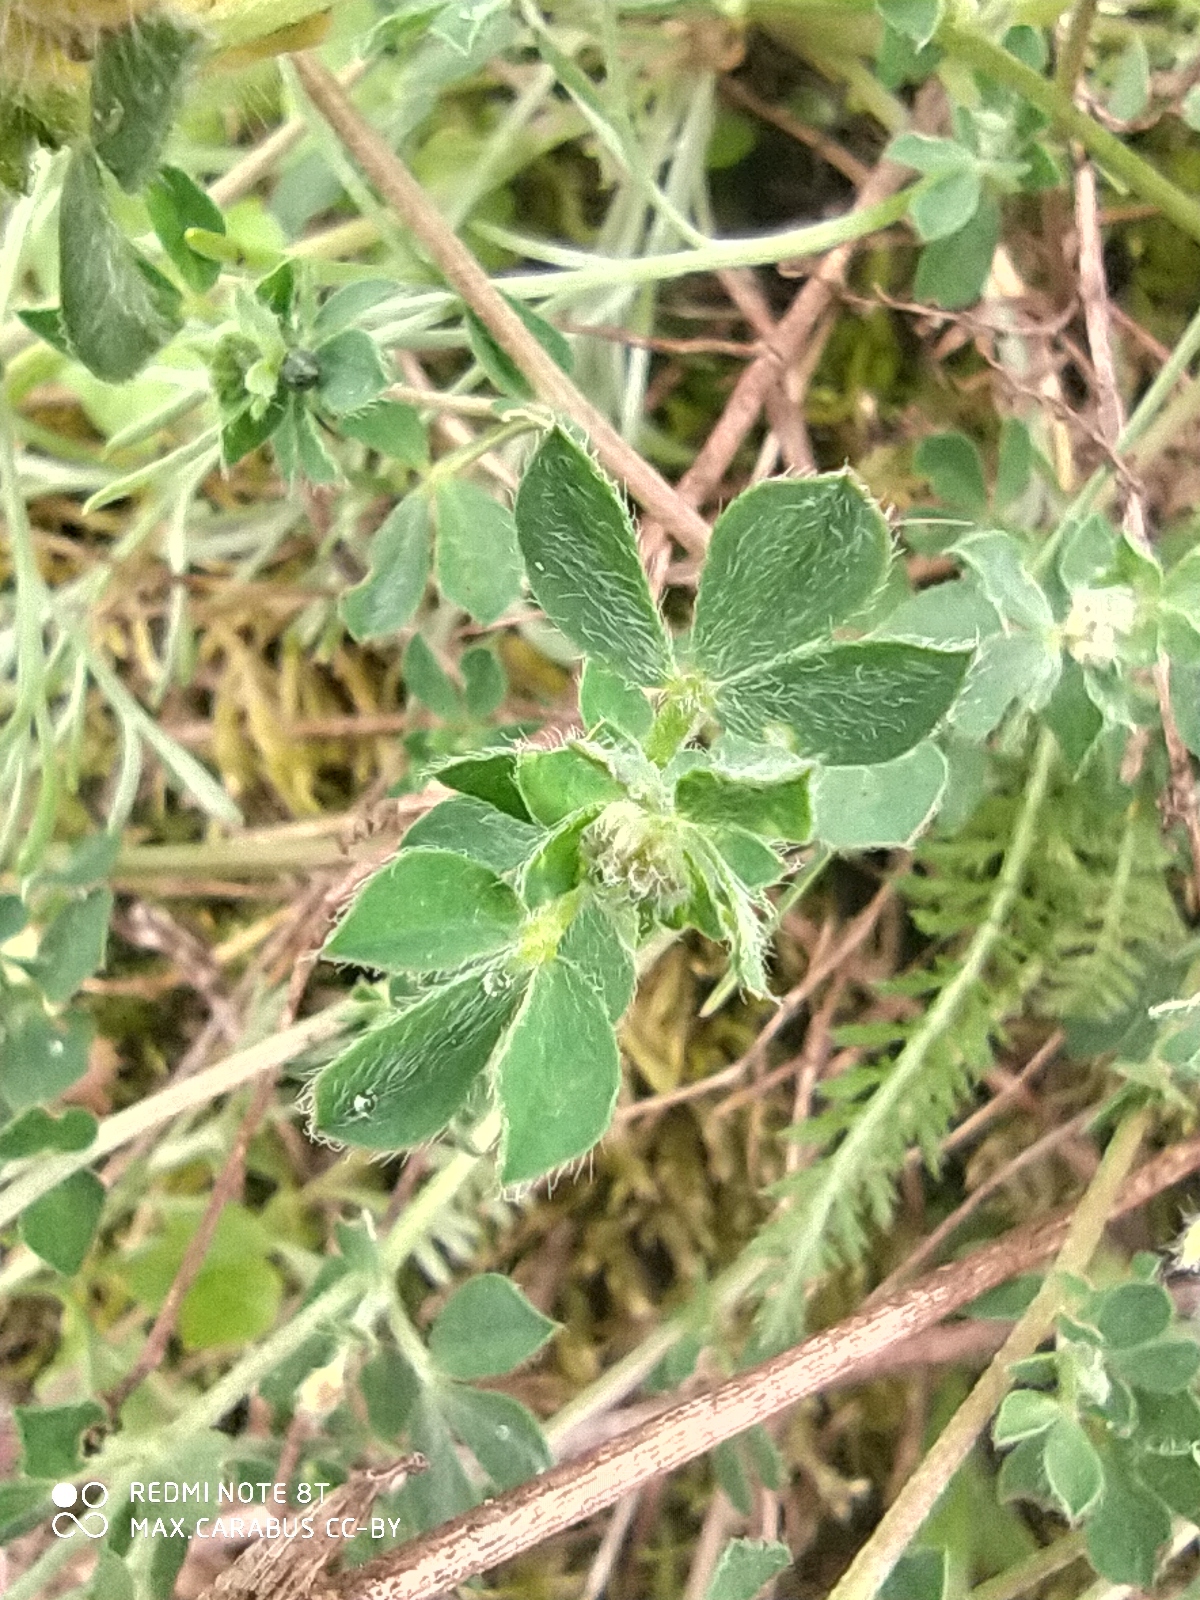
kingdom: Plantae
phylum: Tracheophyta
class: Magnoliopsida
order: Fabales
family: Fabaceae
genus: Lotus
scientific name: Lotus corniculatus
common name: Common bird's-foot-trefoil
